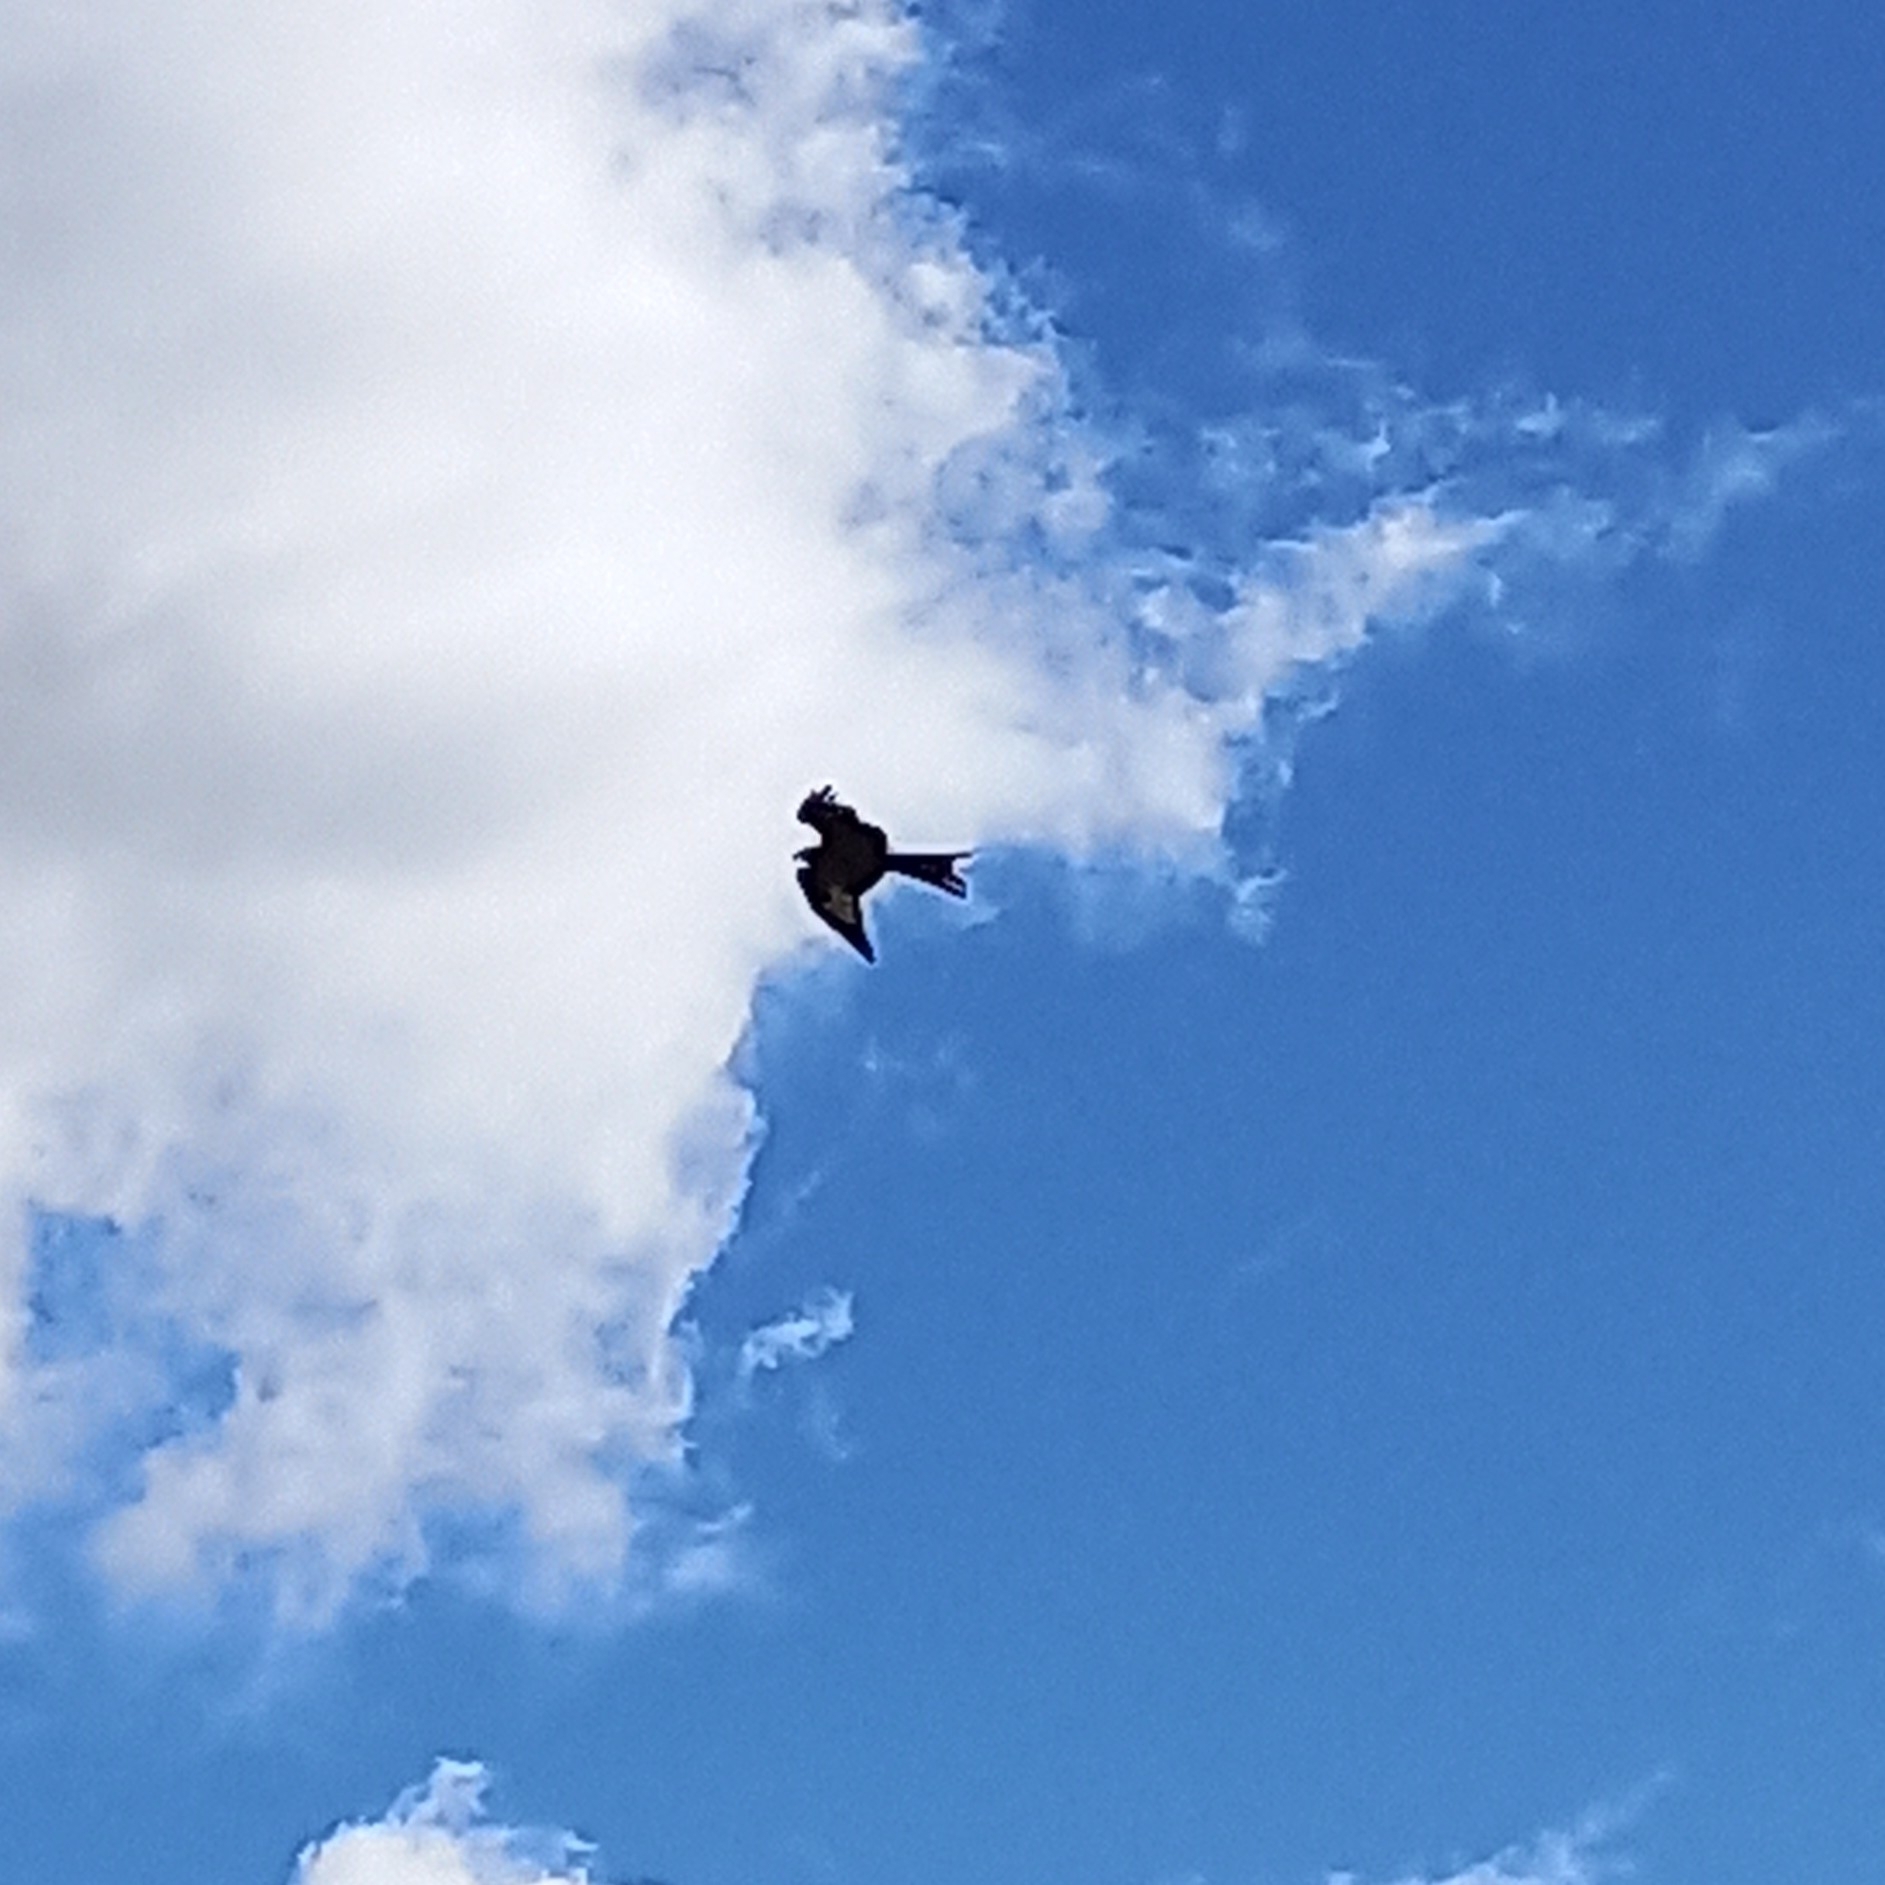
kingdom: Animalia
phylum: Chordata
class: Aves
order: Accipitriformes
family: Accipitridae
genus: Milvus
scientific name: Milvus milvus
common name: Red kite
